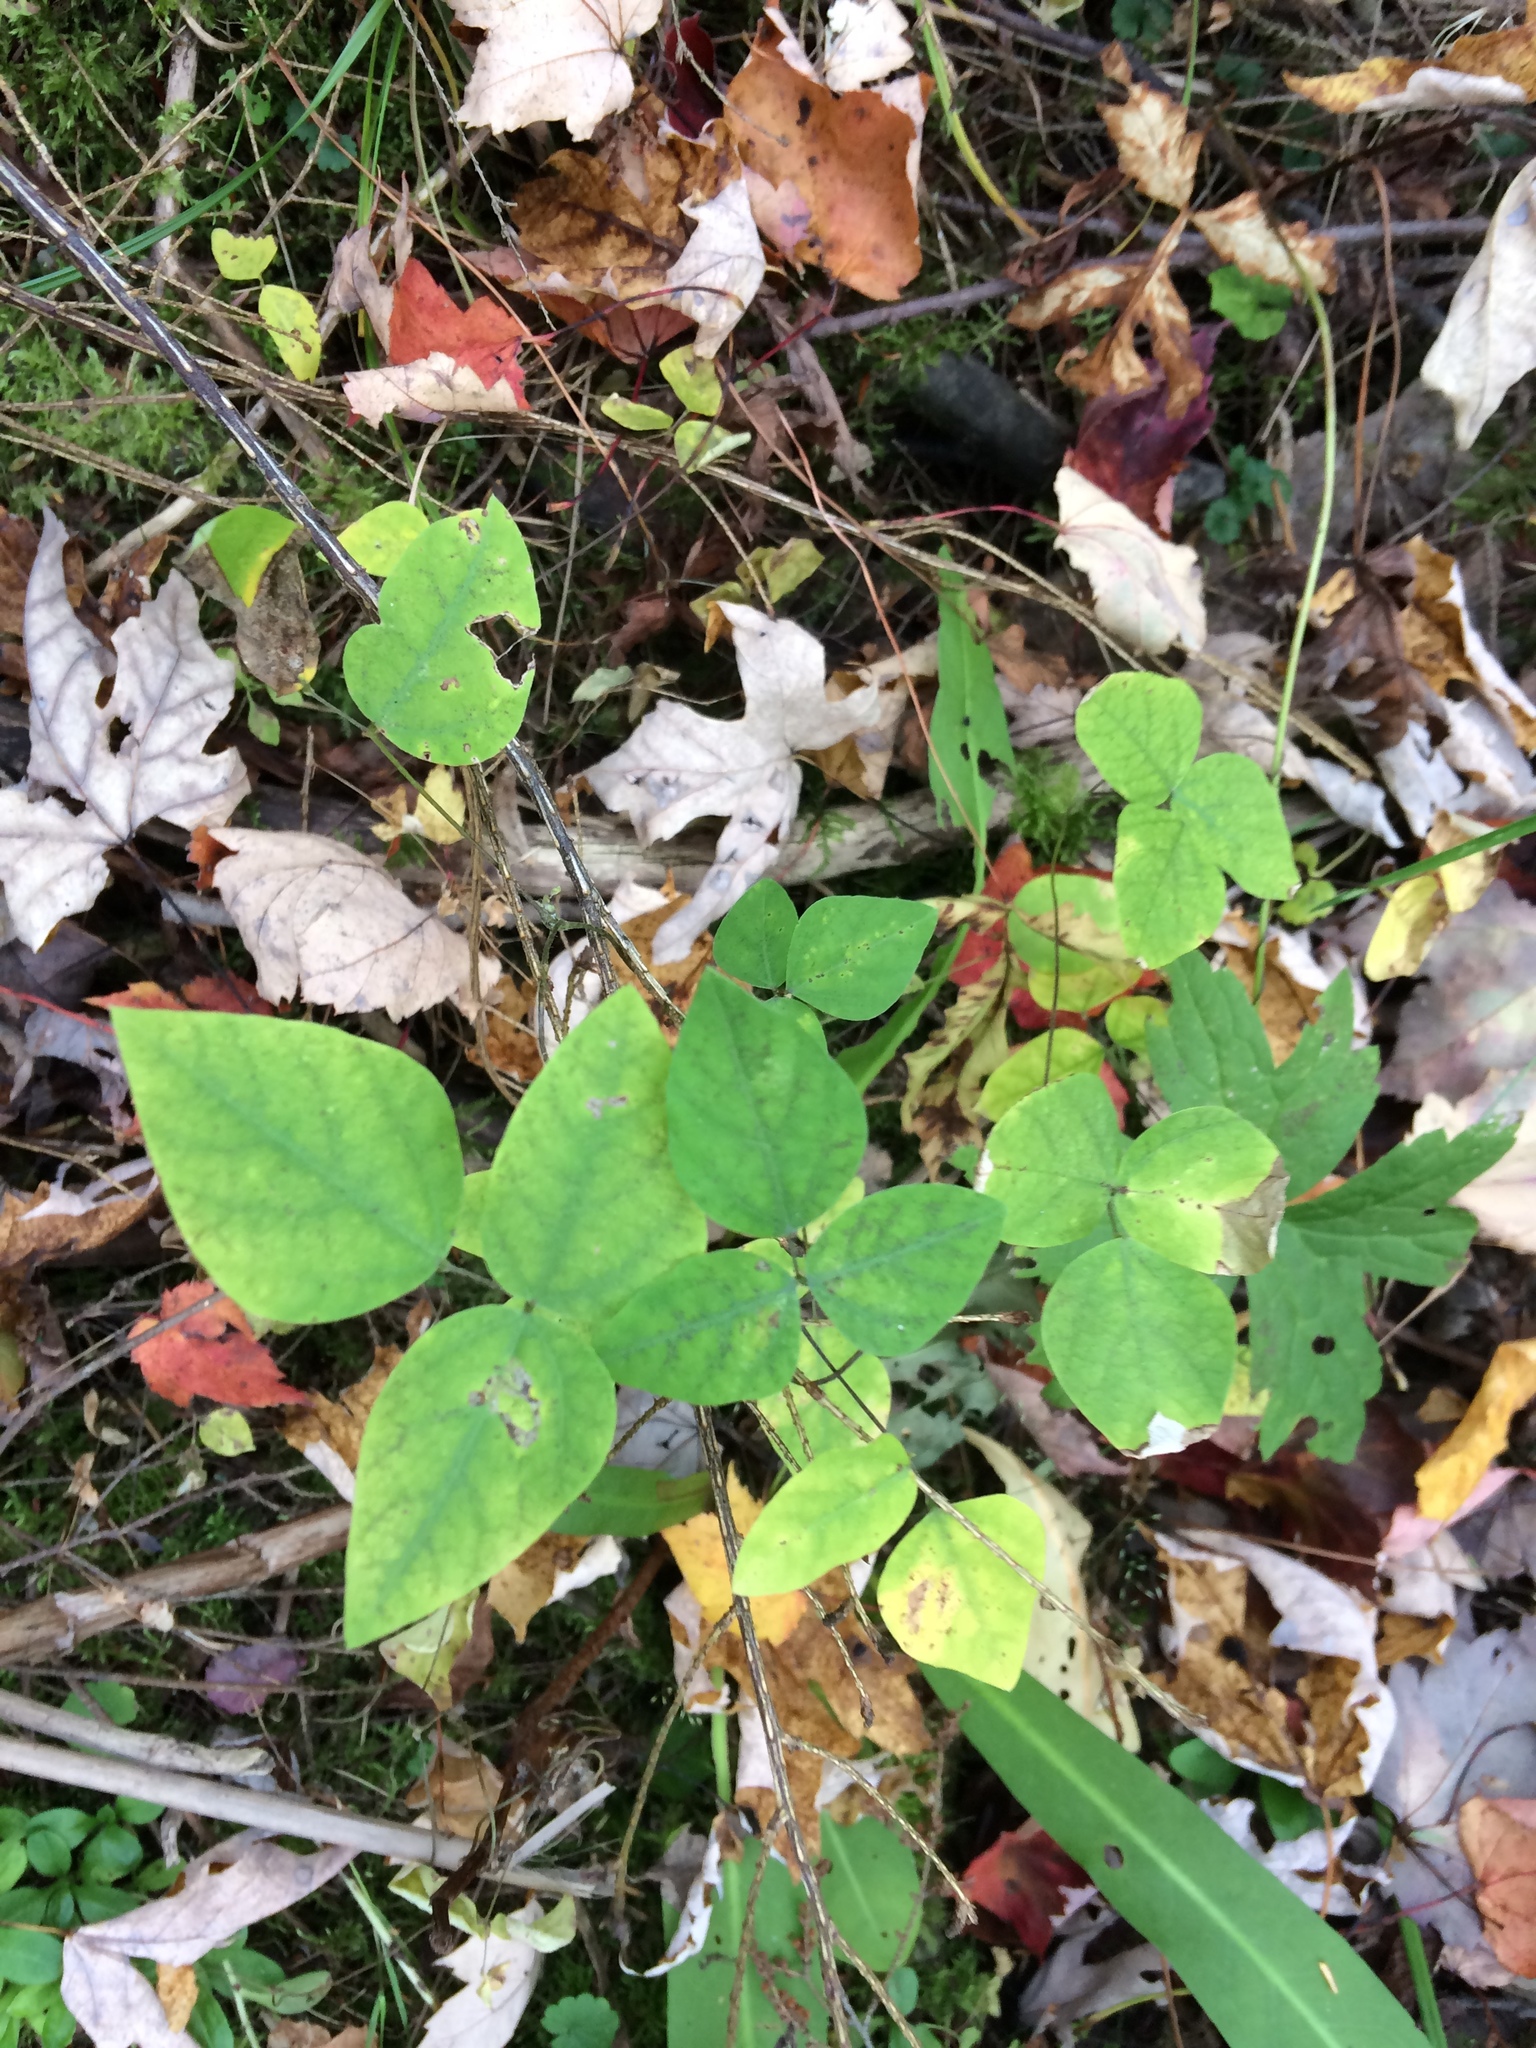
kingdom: Plantae
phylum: Tracheophyta
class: Magnoliopsida
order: Fabales
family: Fabaceae
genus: Amphicarpaea
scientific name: Amphicarpaea bracteata
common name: American hog peanut
